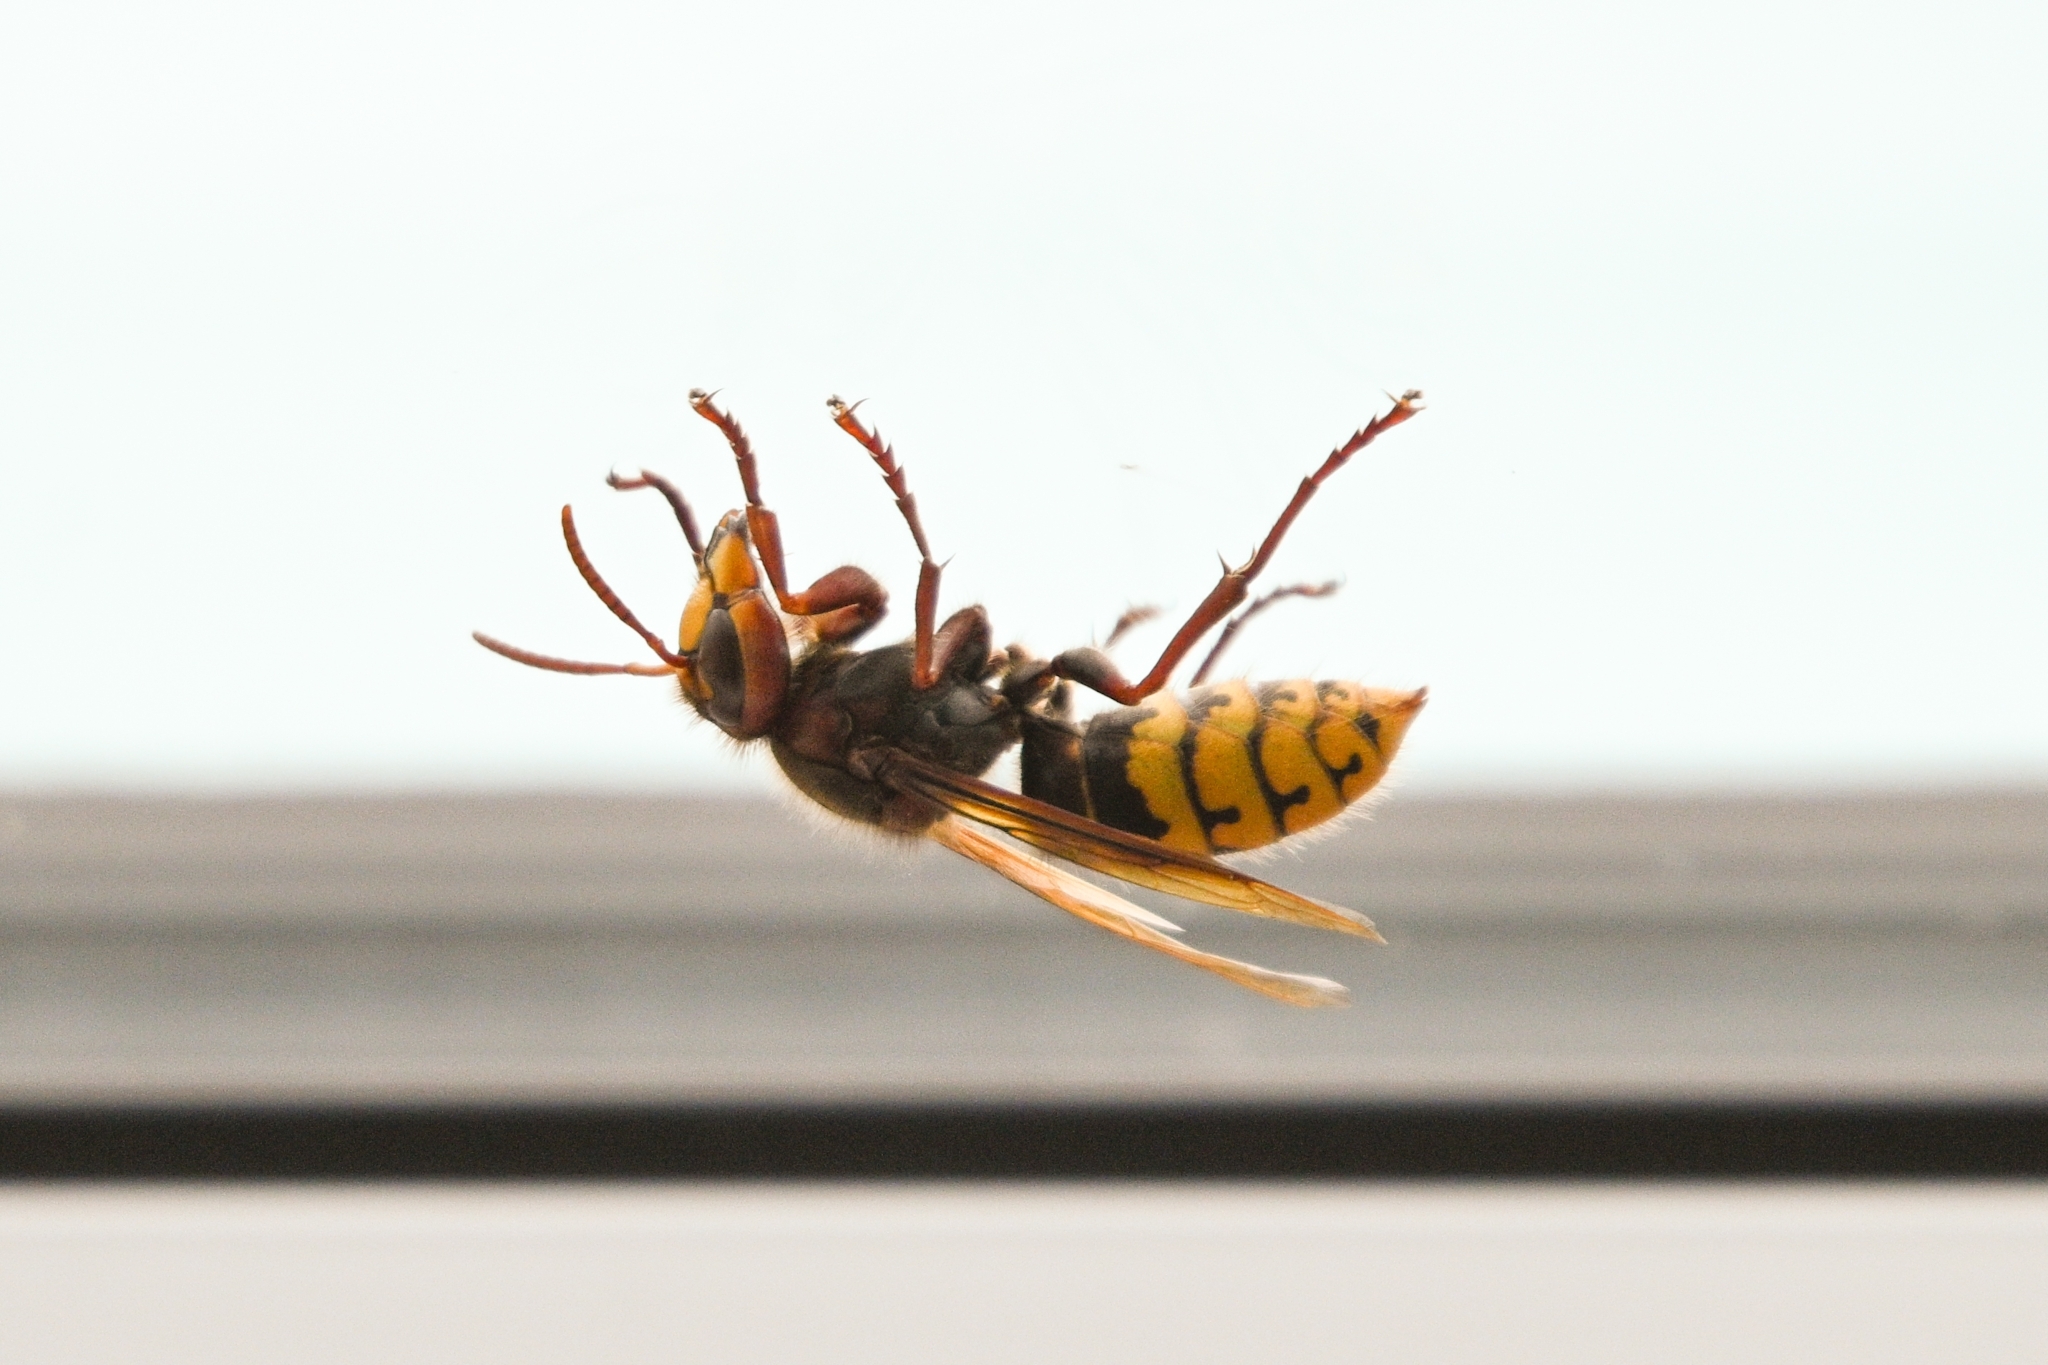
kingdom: Animalia
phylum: Arthropoda
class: Insecta
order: Hymenoptera
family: Vespidae
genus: Vespa
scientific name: Vespa crabro
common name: Hornet
